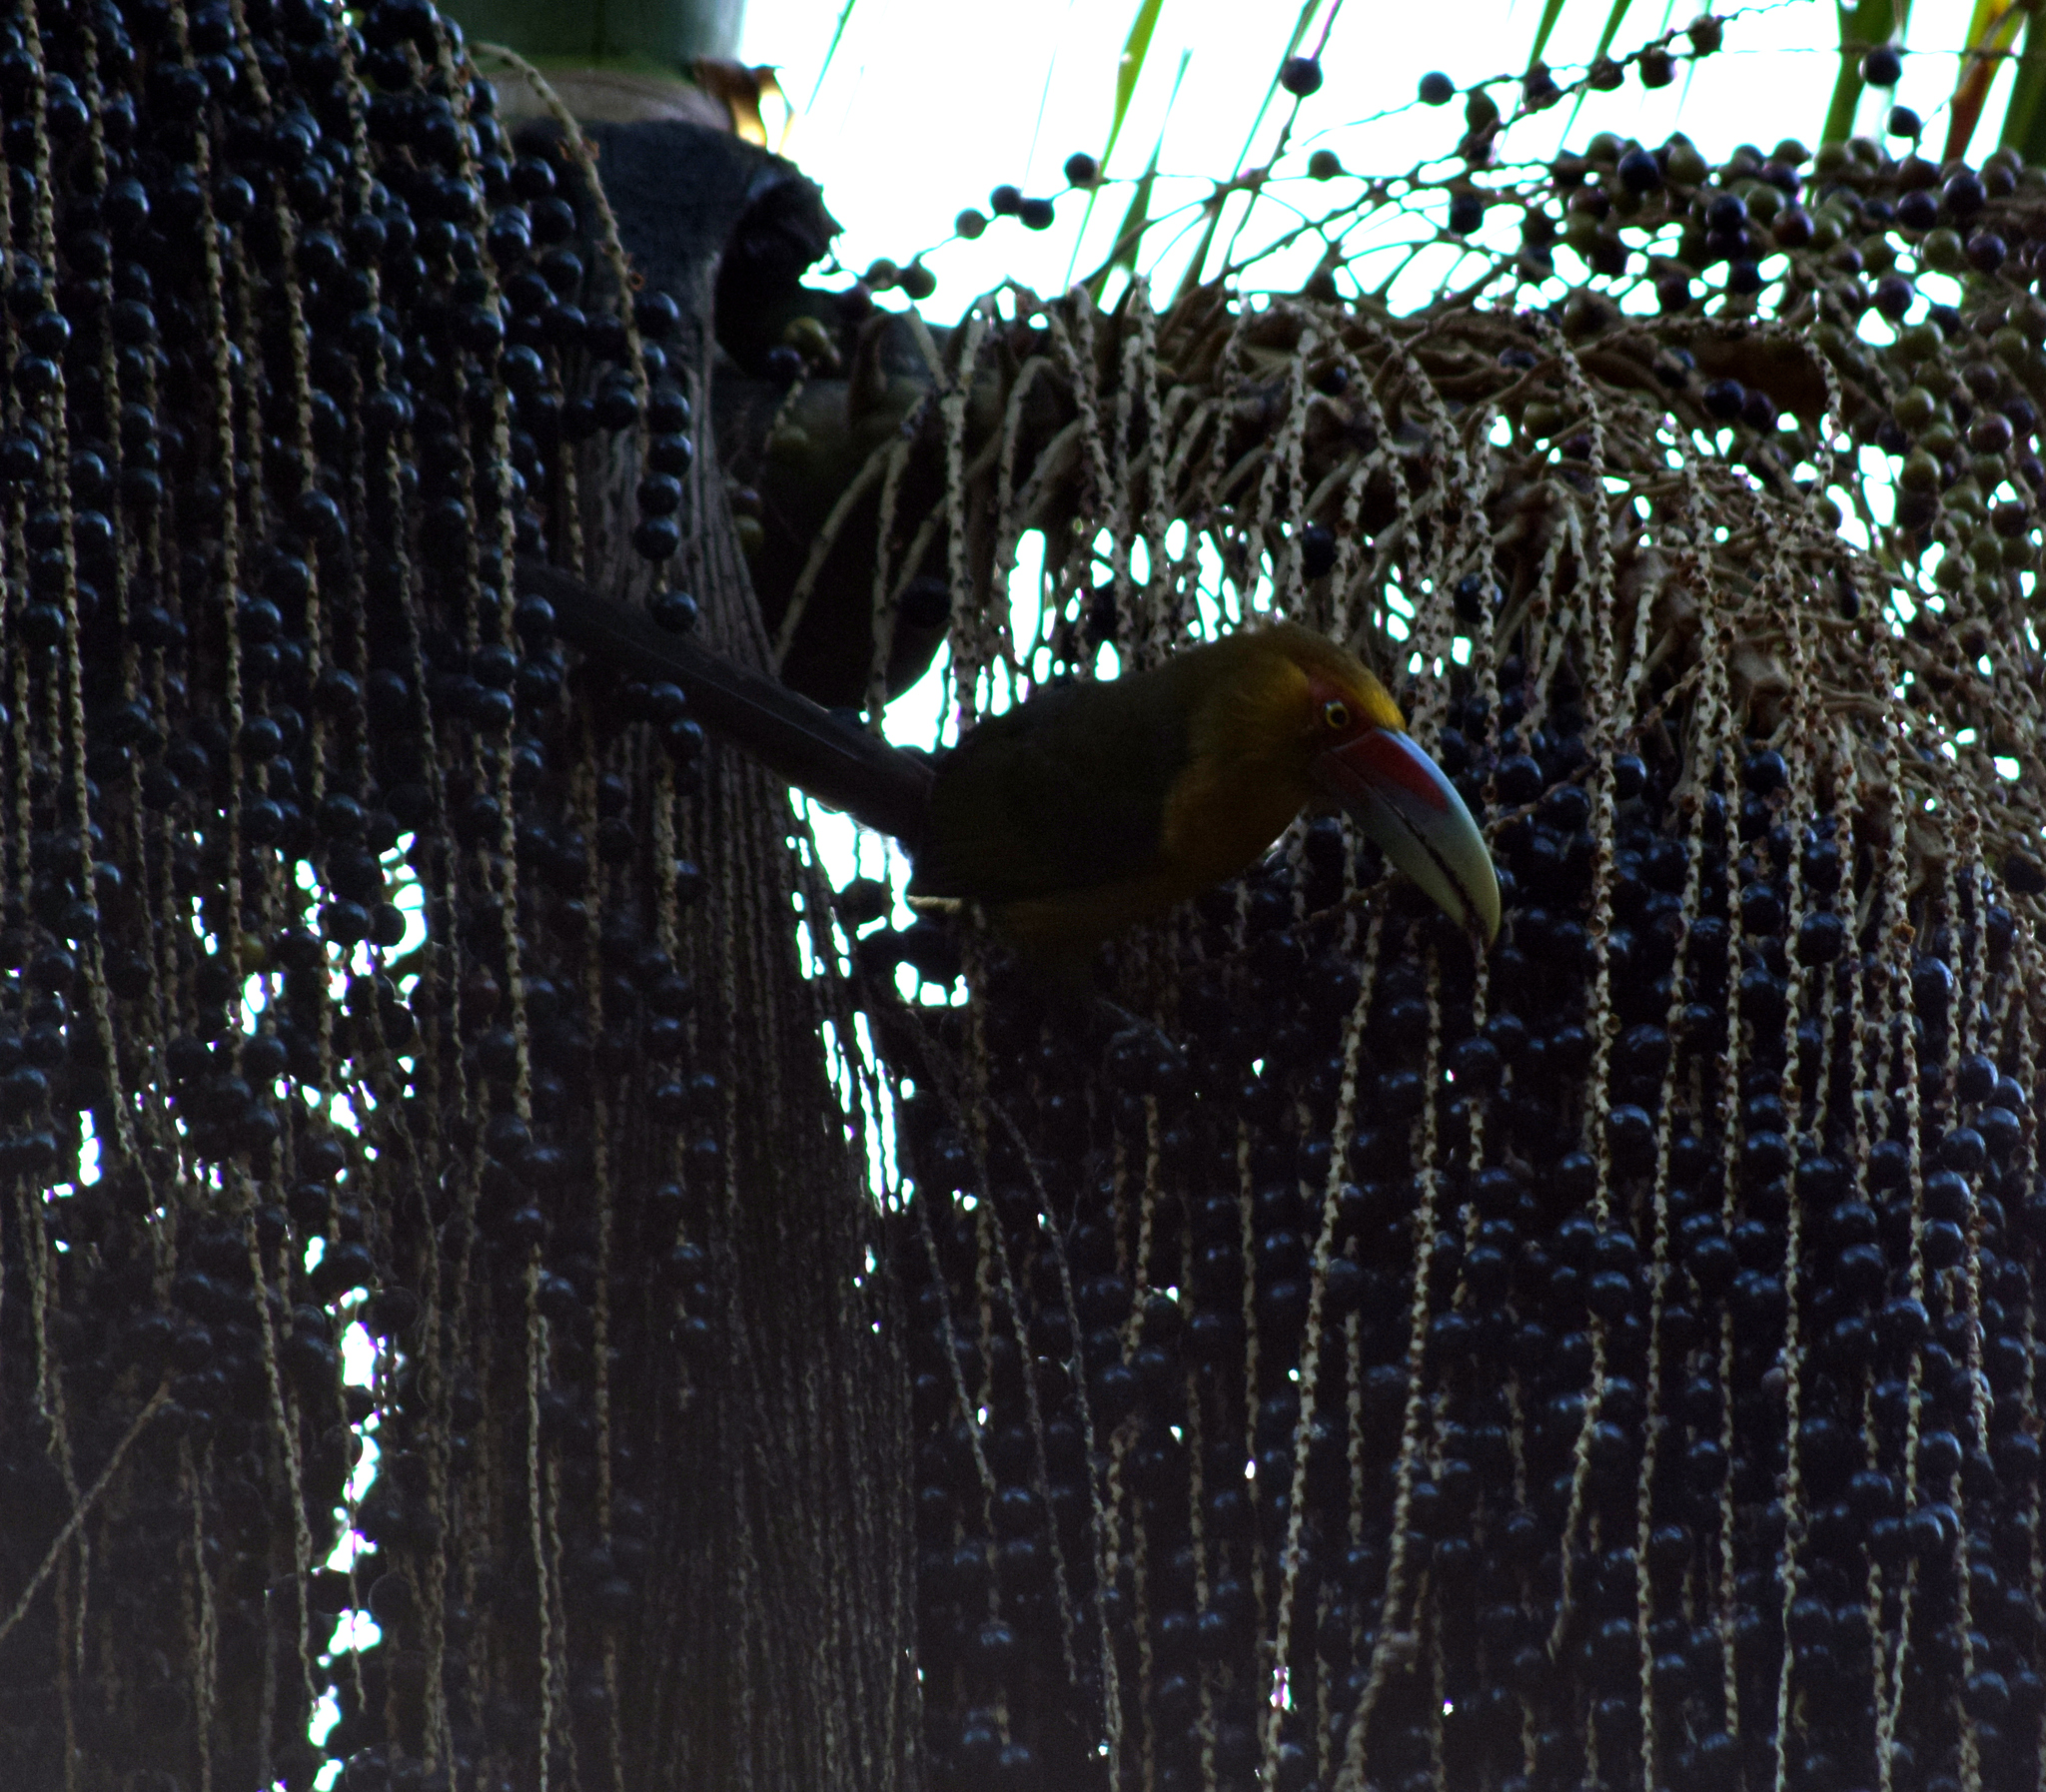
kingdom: Animalia
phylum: Chordata
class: Aves
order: Piciformes
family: Ramphastidae
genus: Pteroglossus
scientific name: Pteroglossus bailloni
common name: Saffron toucanet
